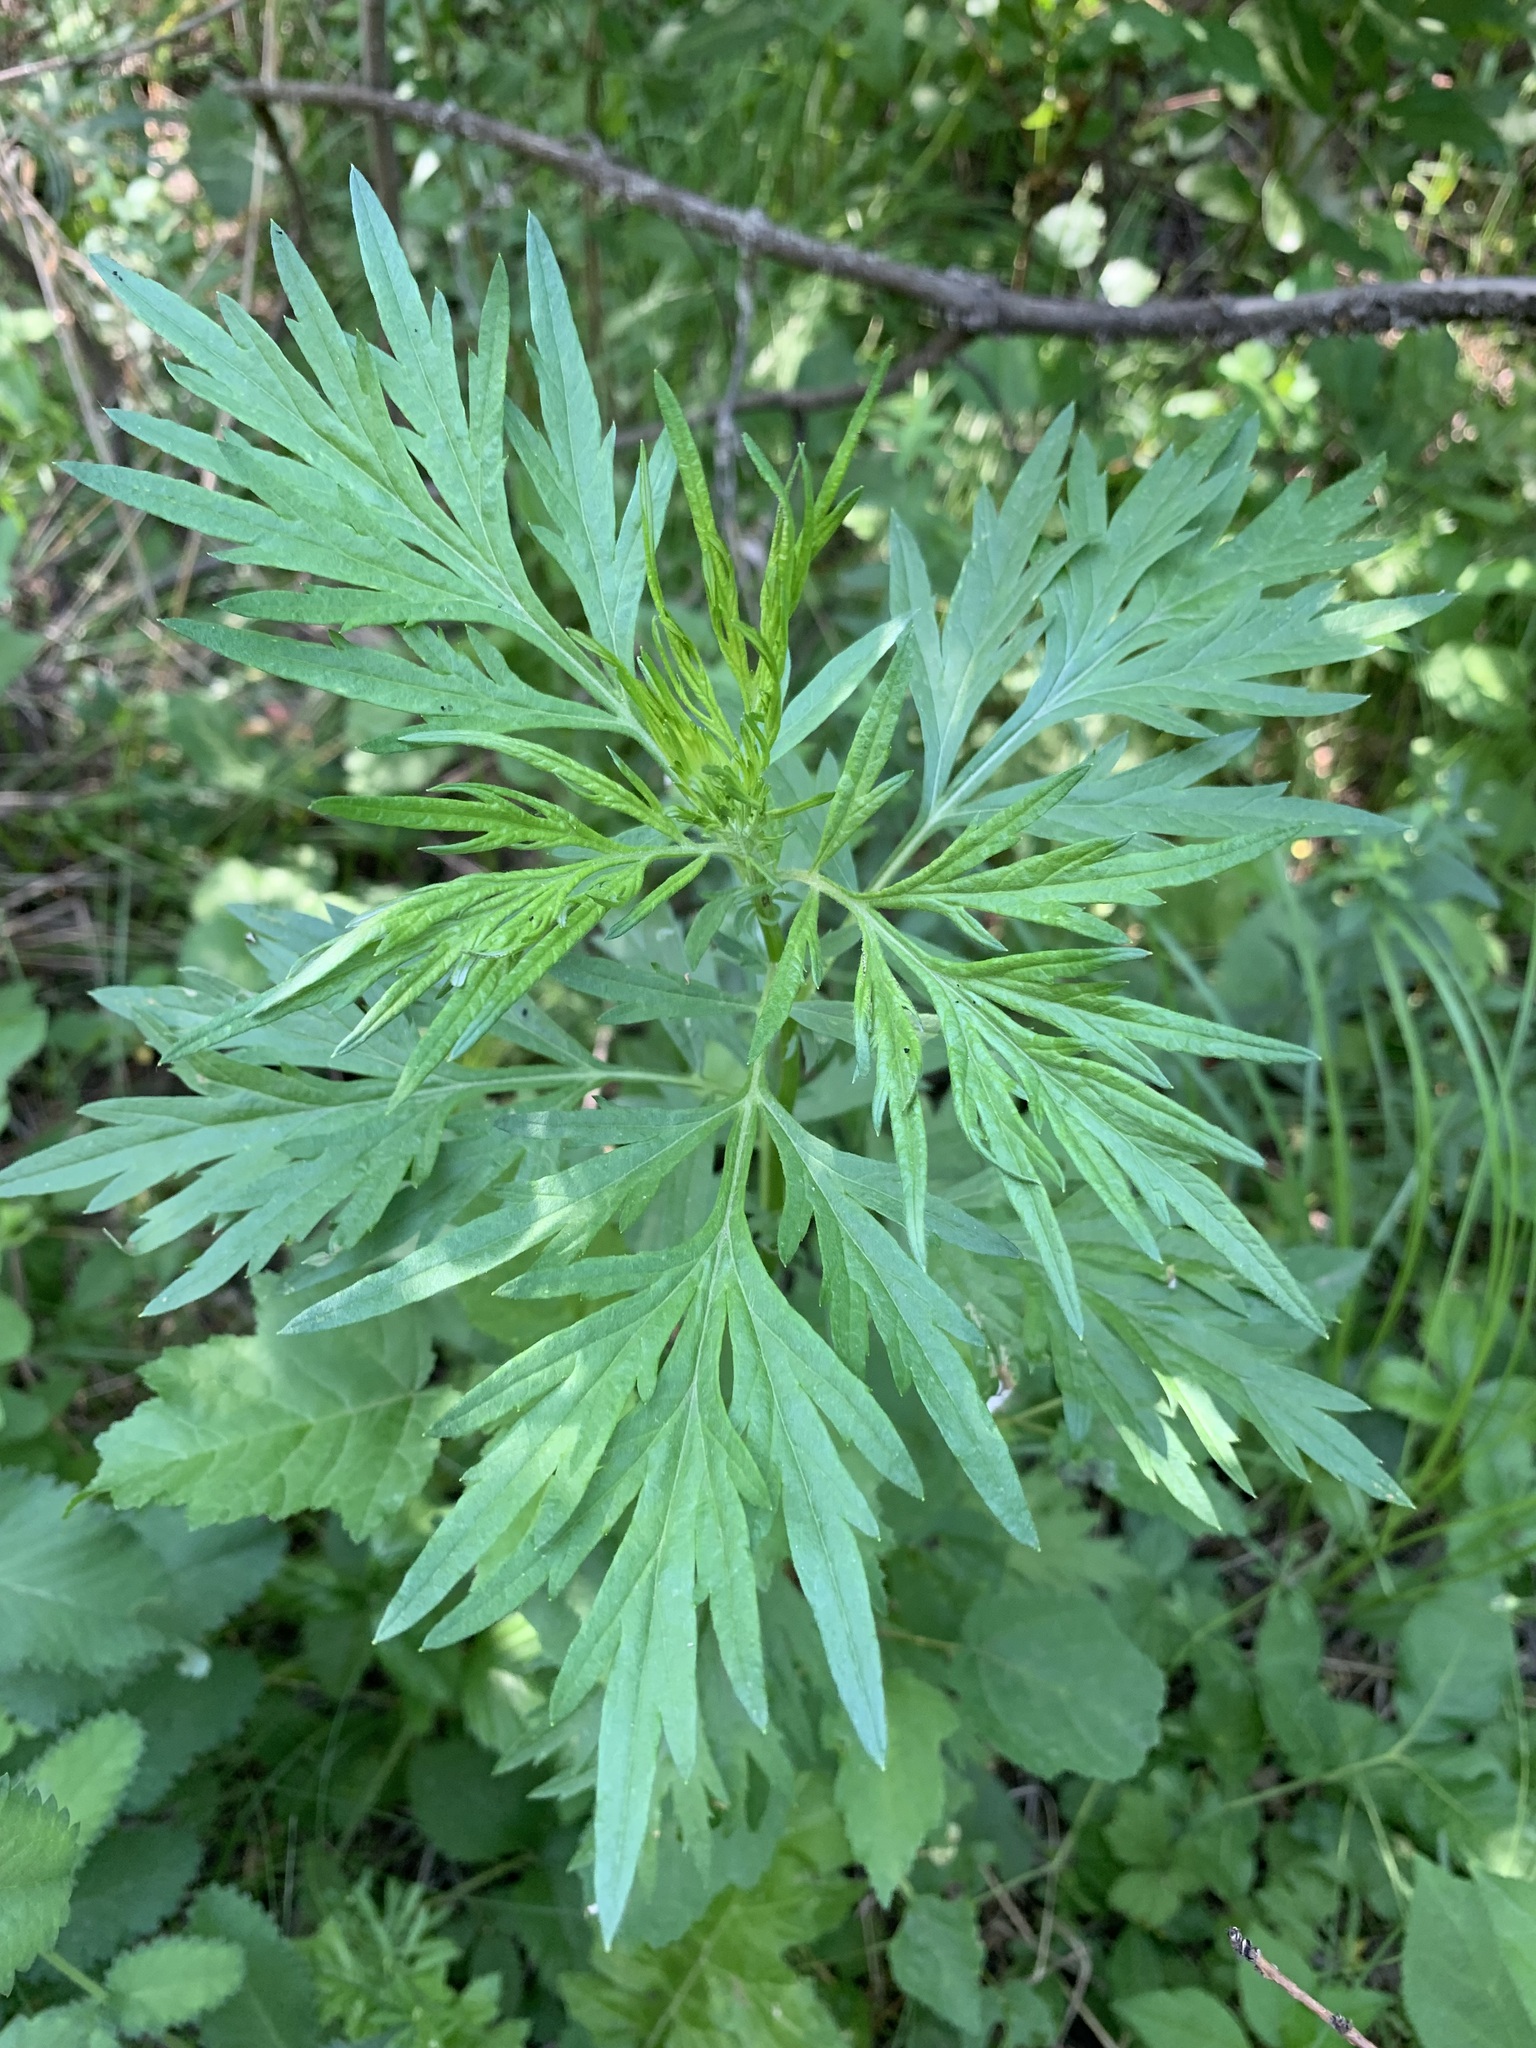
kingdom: Plantae
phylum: Tracheophyta
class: Magnoliopsida
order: Asterales
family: Asteraceae
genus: Artemisia
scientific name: Artemisia vulgaris
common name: Mugwort
